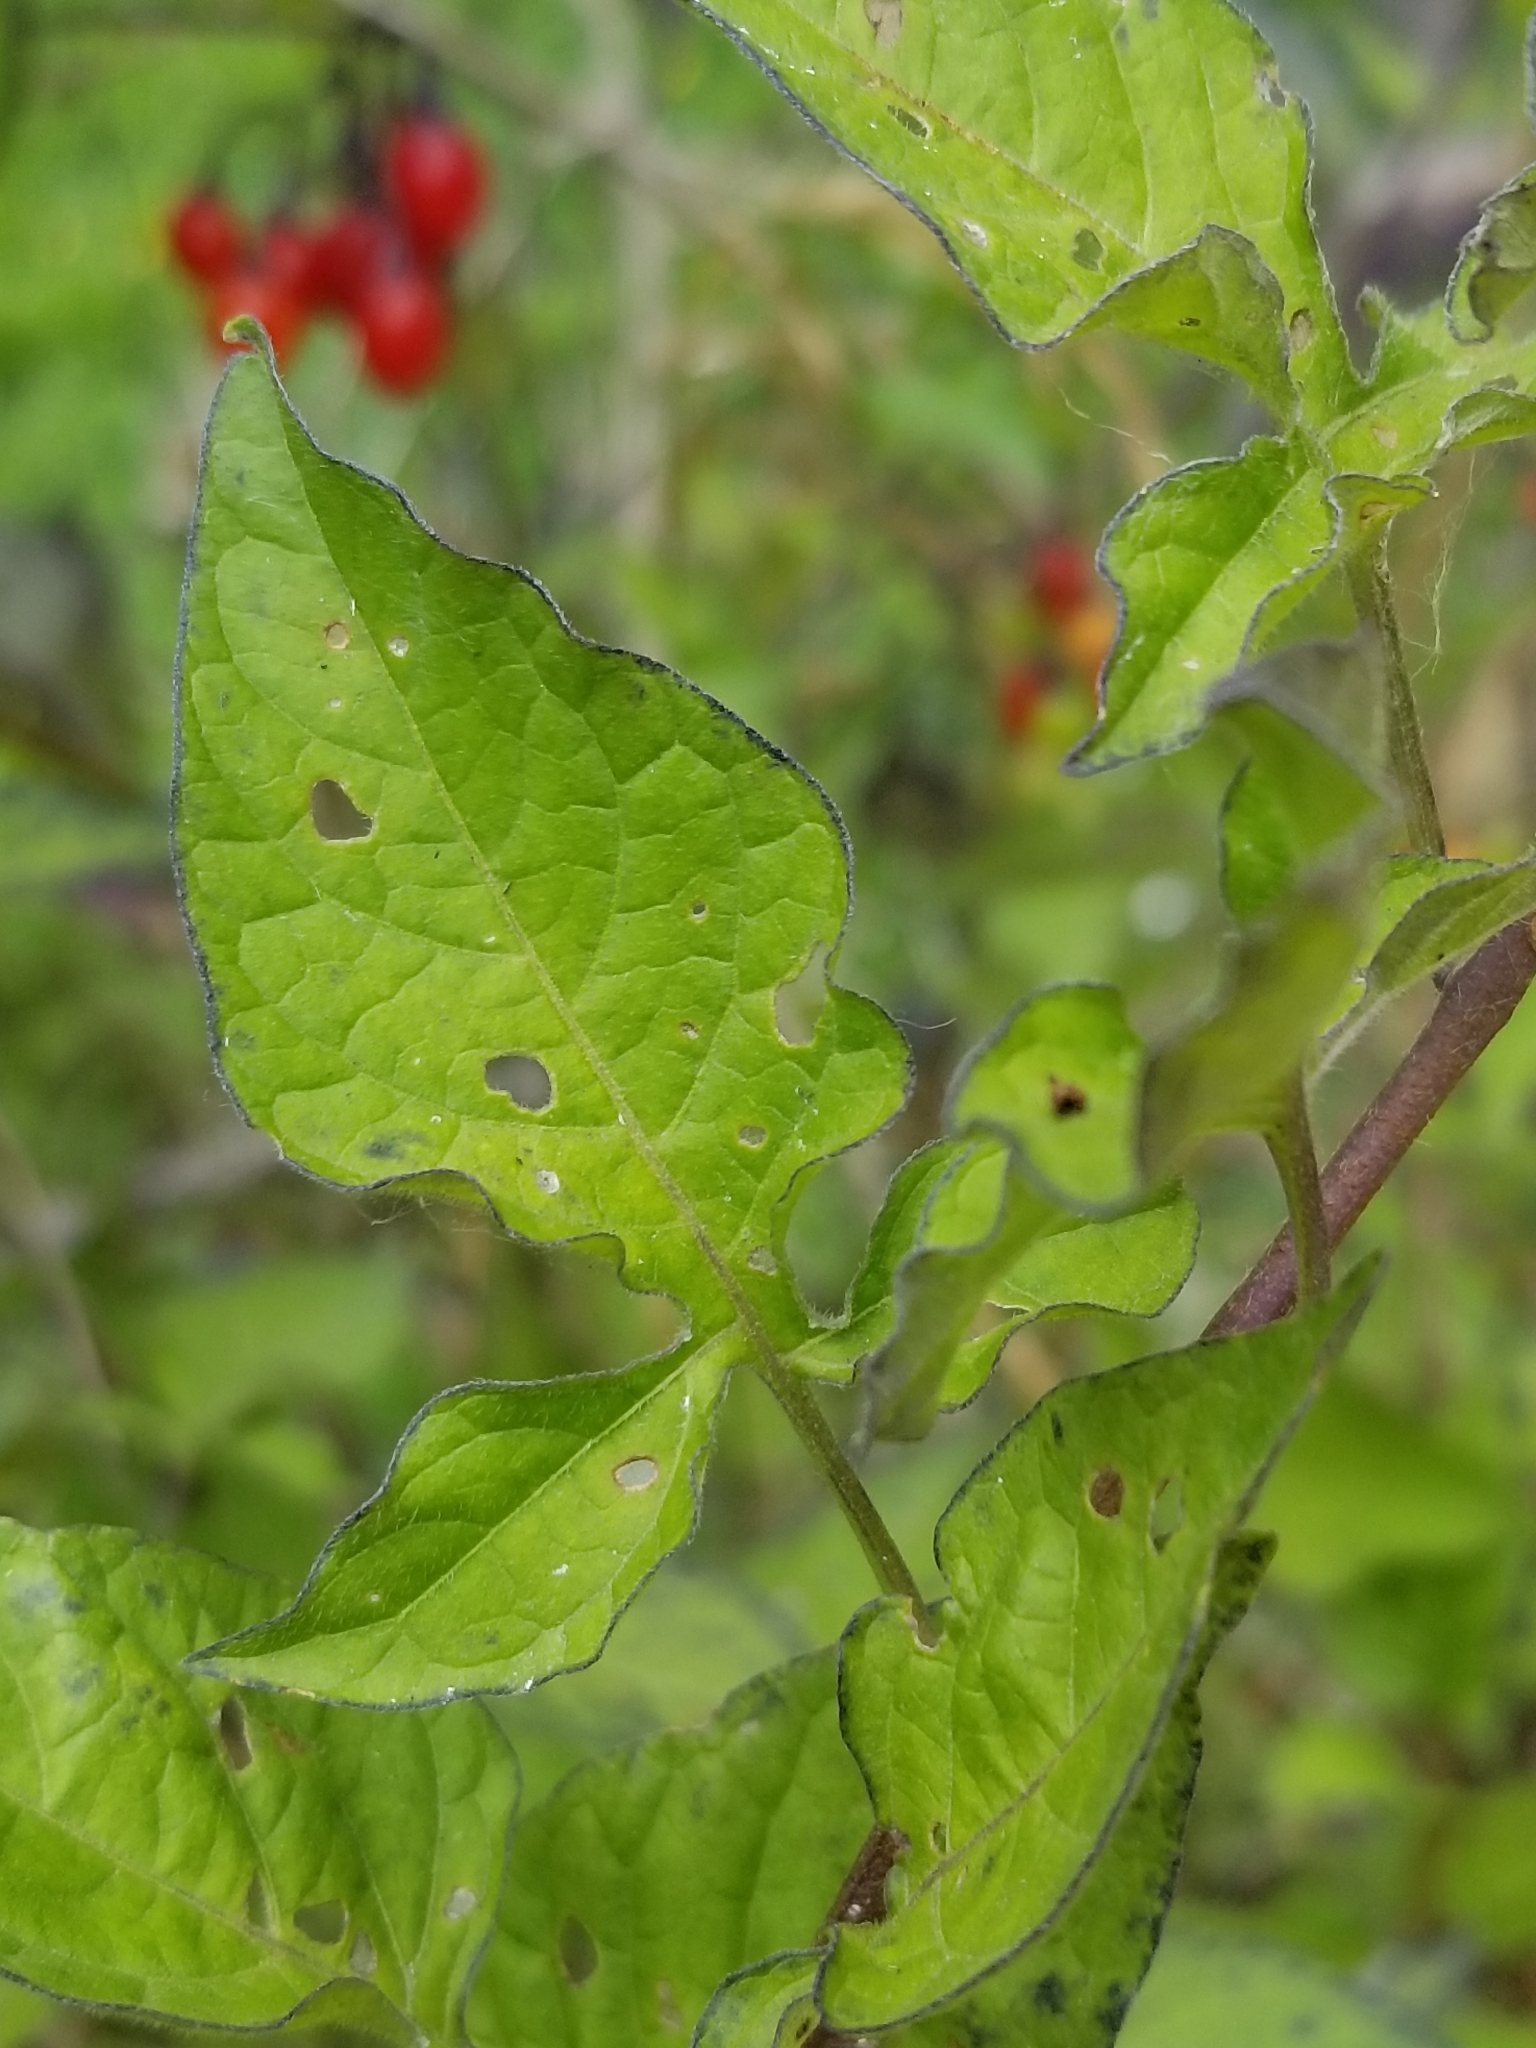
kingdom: Plantae
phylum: Tracheophyta
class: Magnoliopsida
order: Solanales
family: Solanaceae
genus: Solanum
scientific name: Solanum dulcamara
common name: Climbing nightshade
